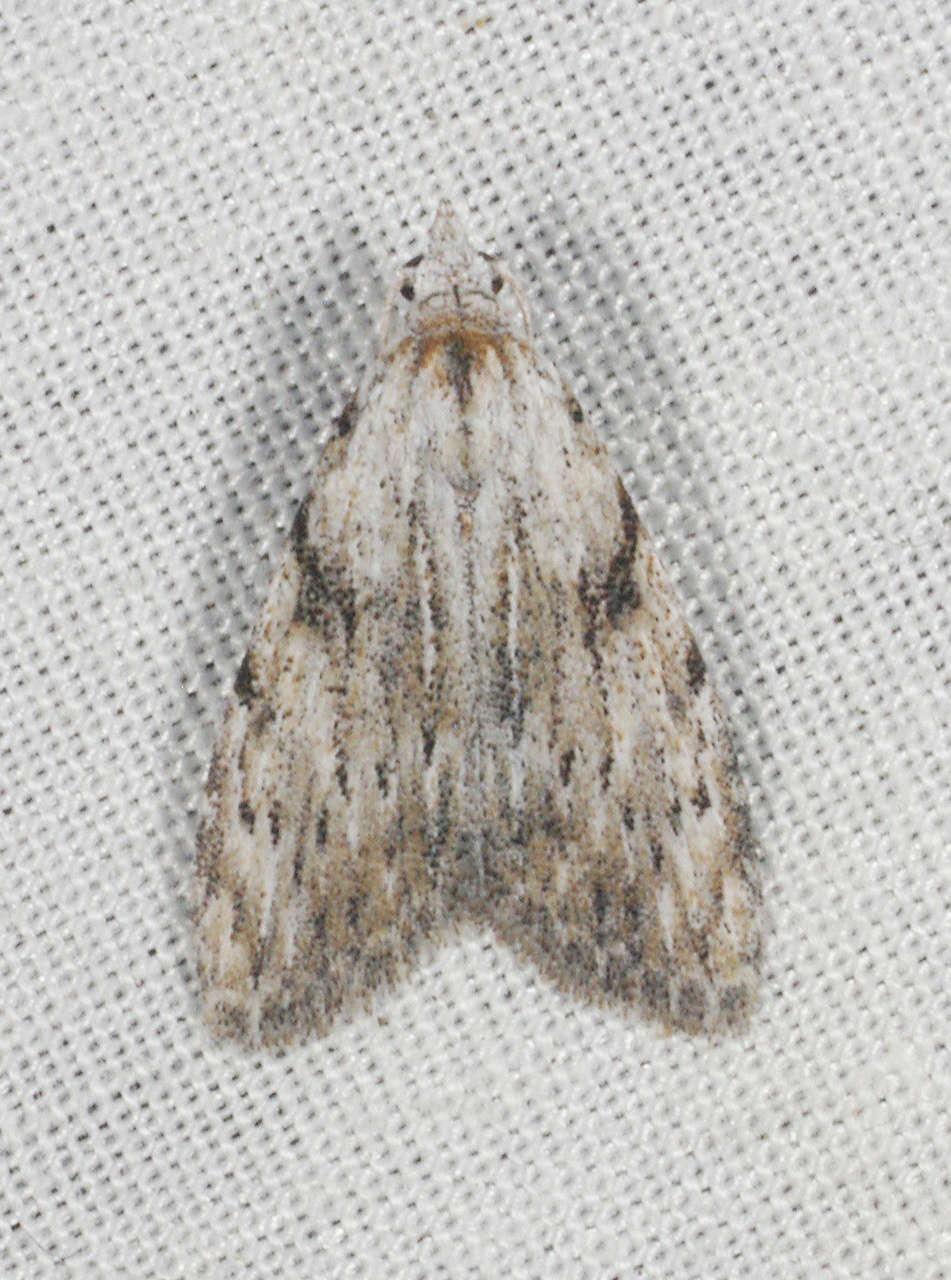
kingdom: Animalia
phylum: Arthropoda
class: Insecta
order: Lepidoptera
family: Nolidae
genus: Nola
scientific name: Nola monozona
